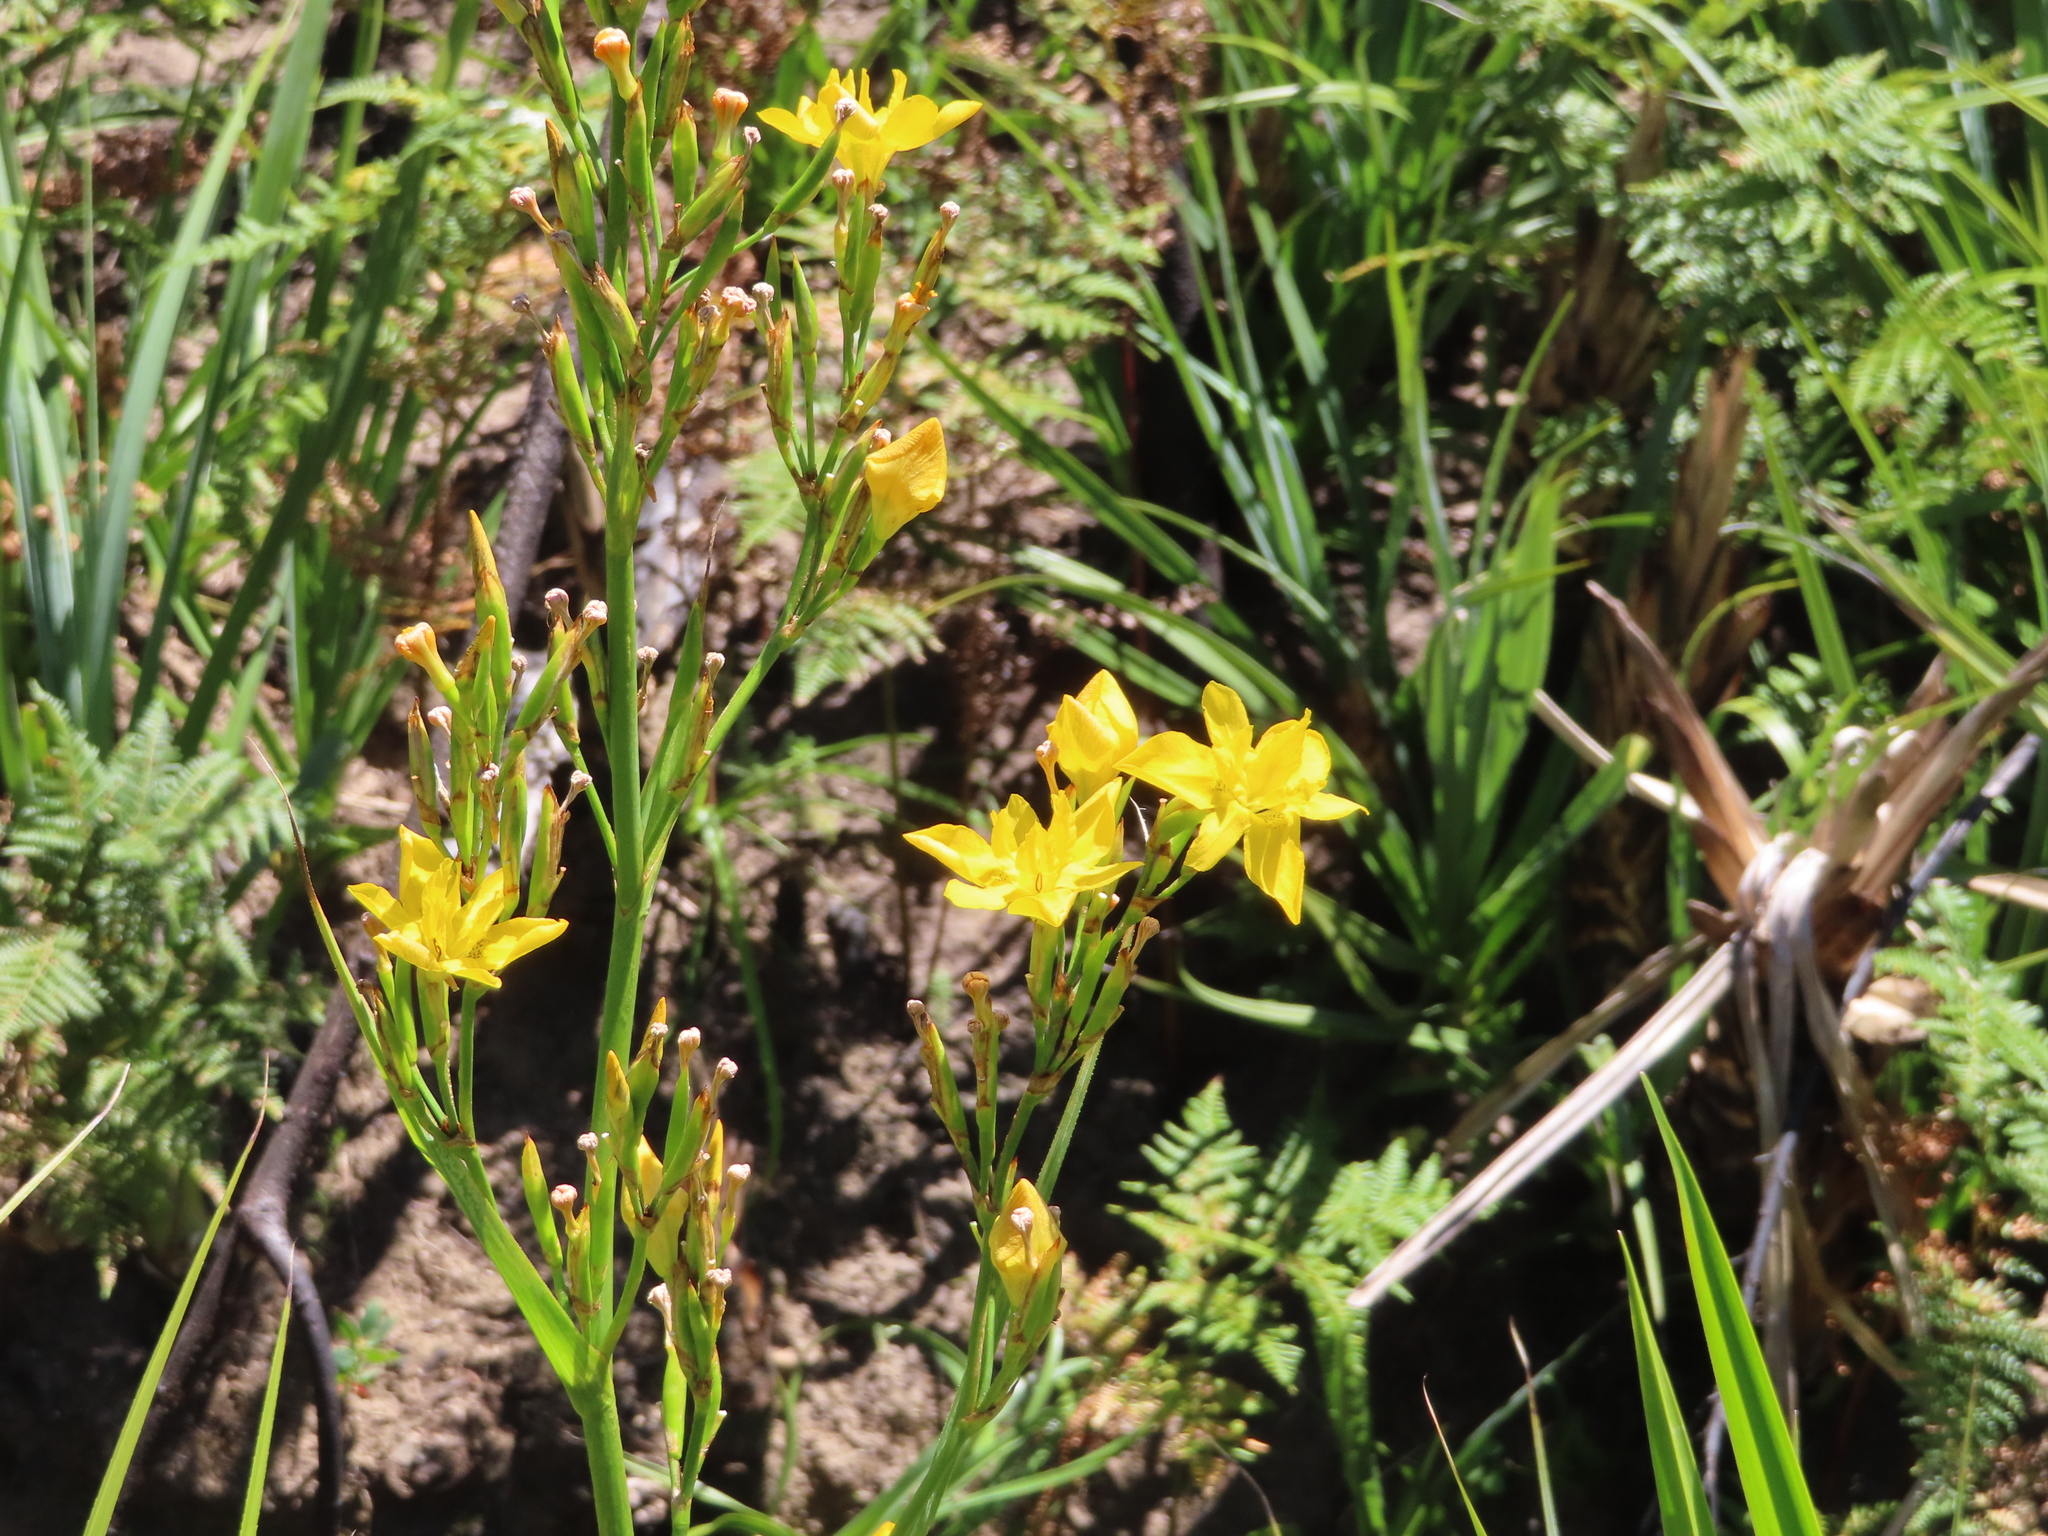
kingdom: Plantae
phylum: Tracheophyta
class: Liliopsida
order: Asparagales
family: Iridaceae
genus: Moraea
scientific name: Moraea ramosissima
